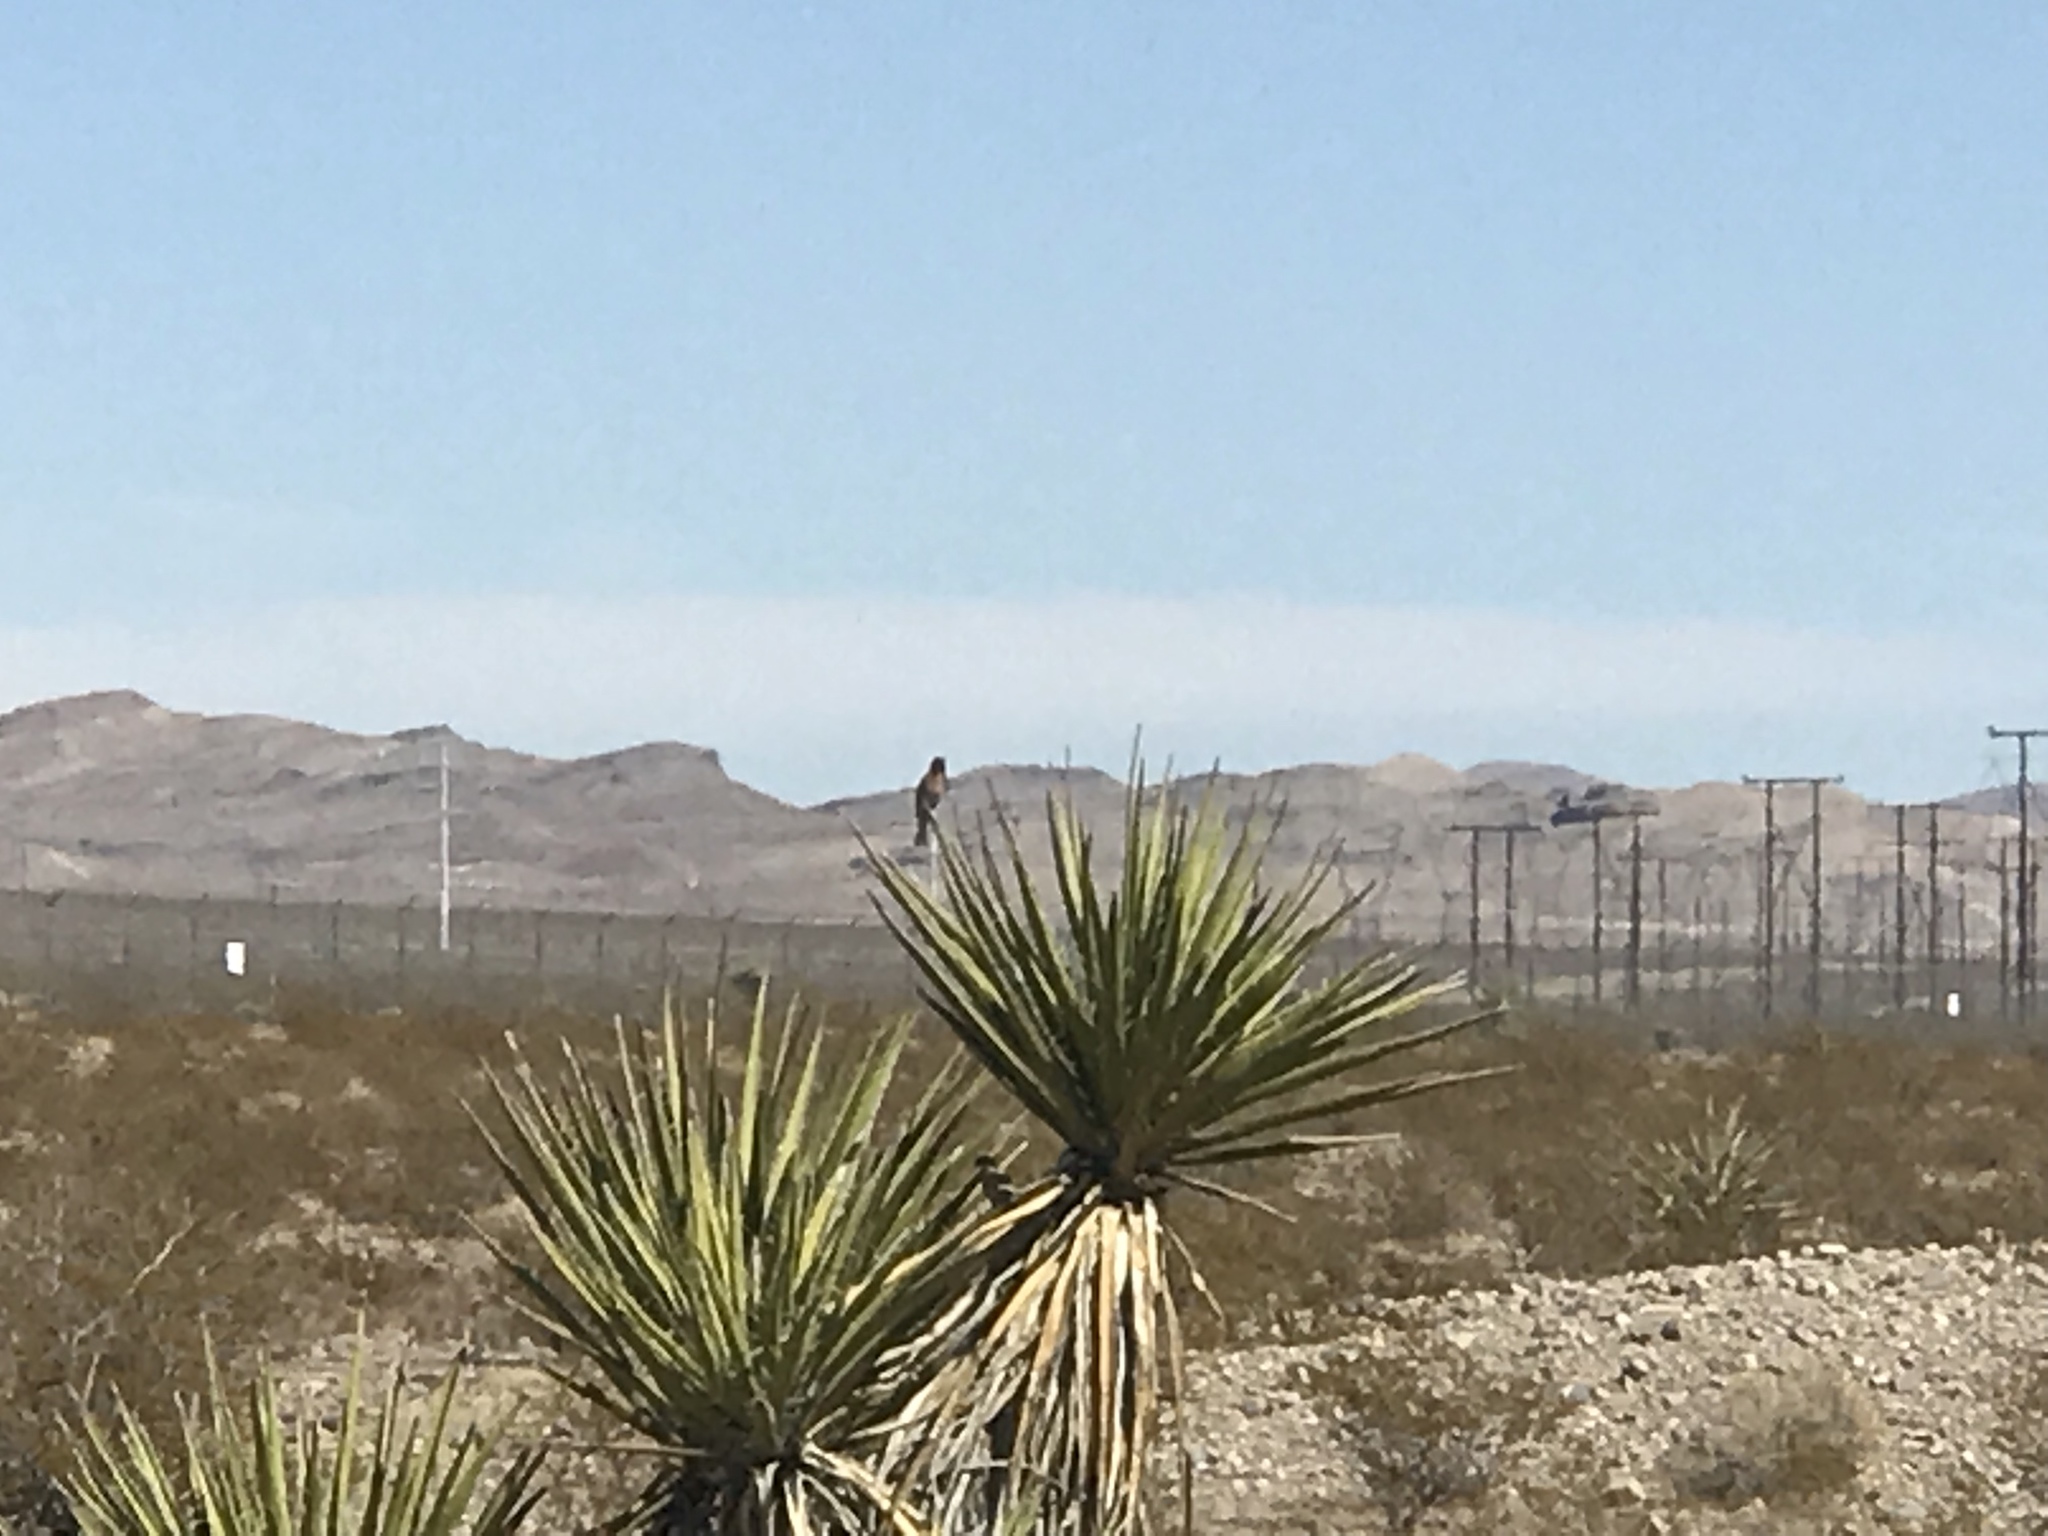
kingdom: Plantae
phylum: Tracheophyta
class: Liliopsida
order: Asparagales
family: Asparagaceae
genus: Yucca
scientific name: Yucca schidigera
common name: Mojave yucca
